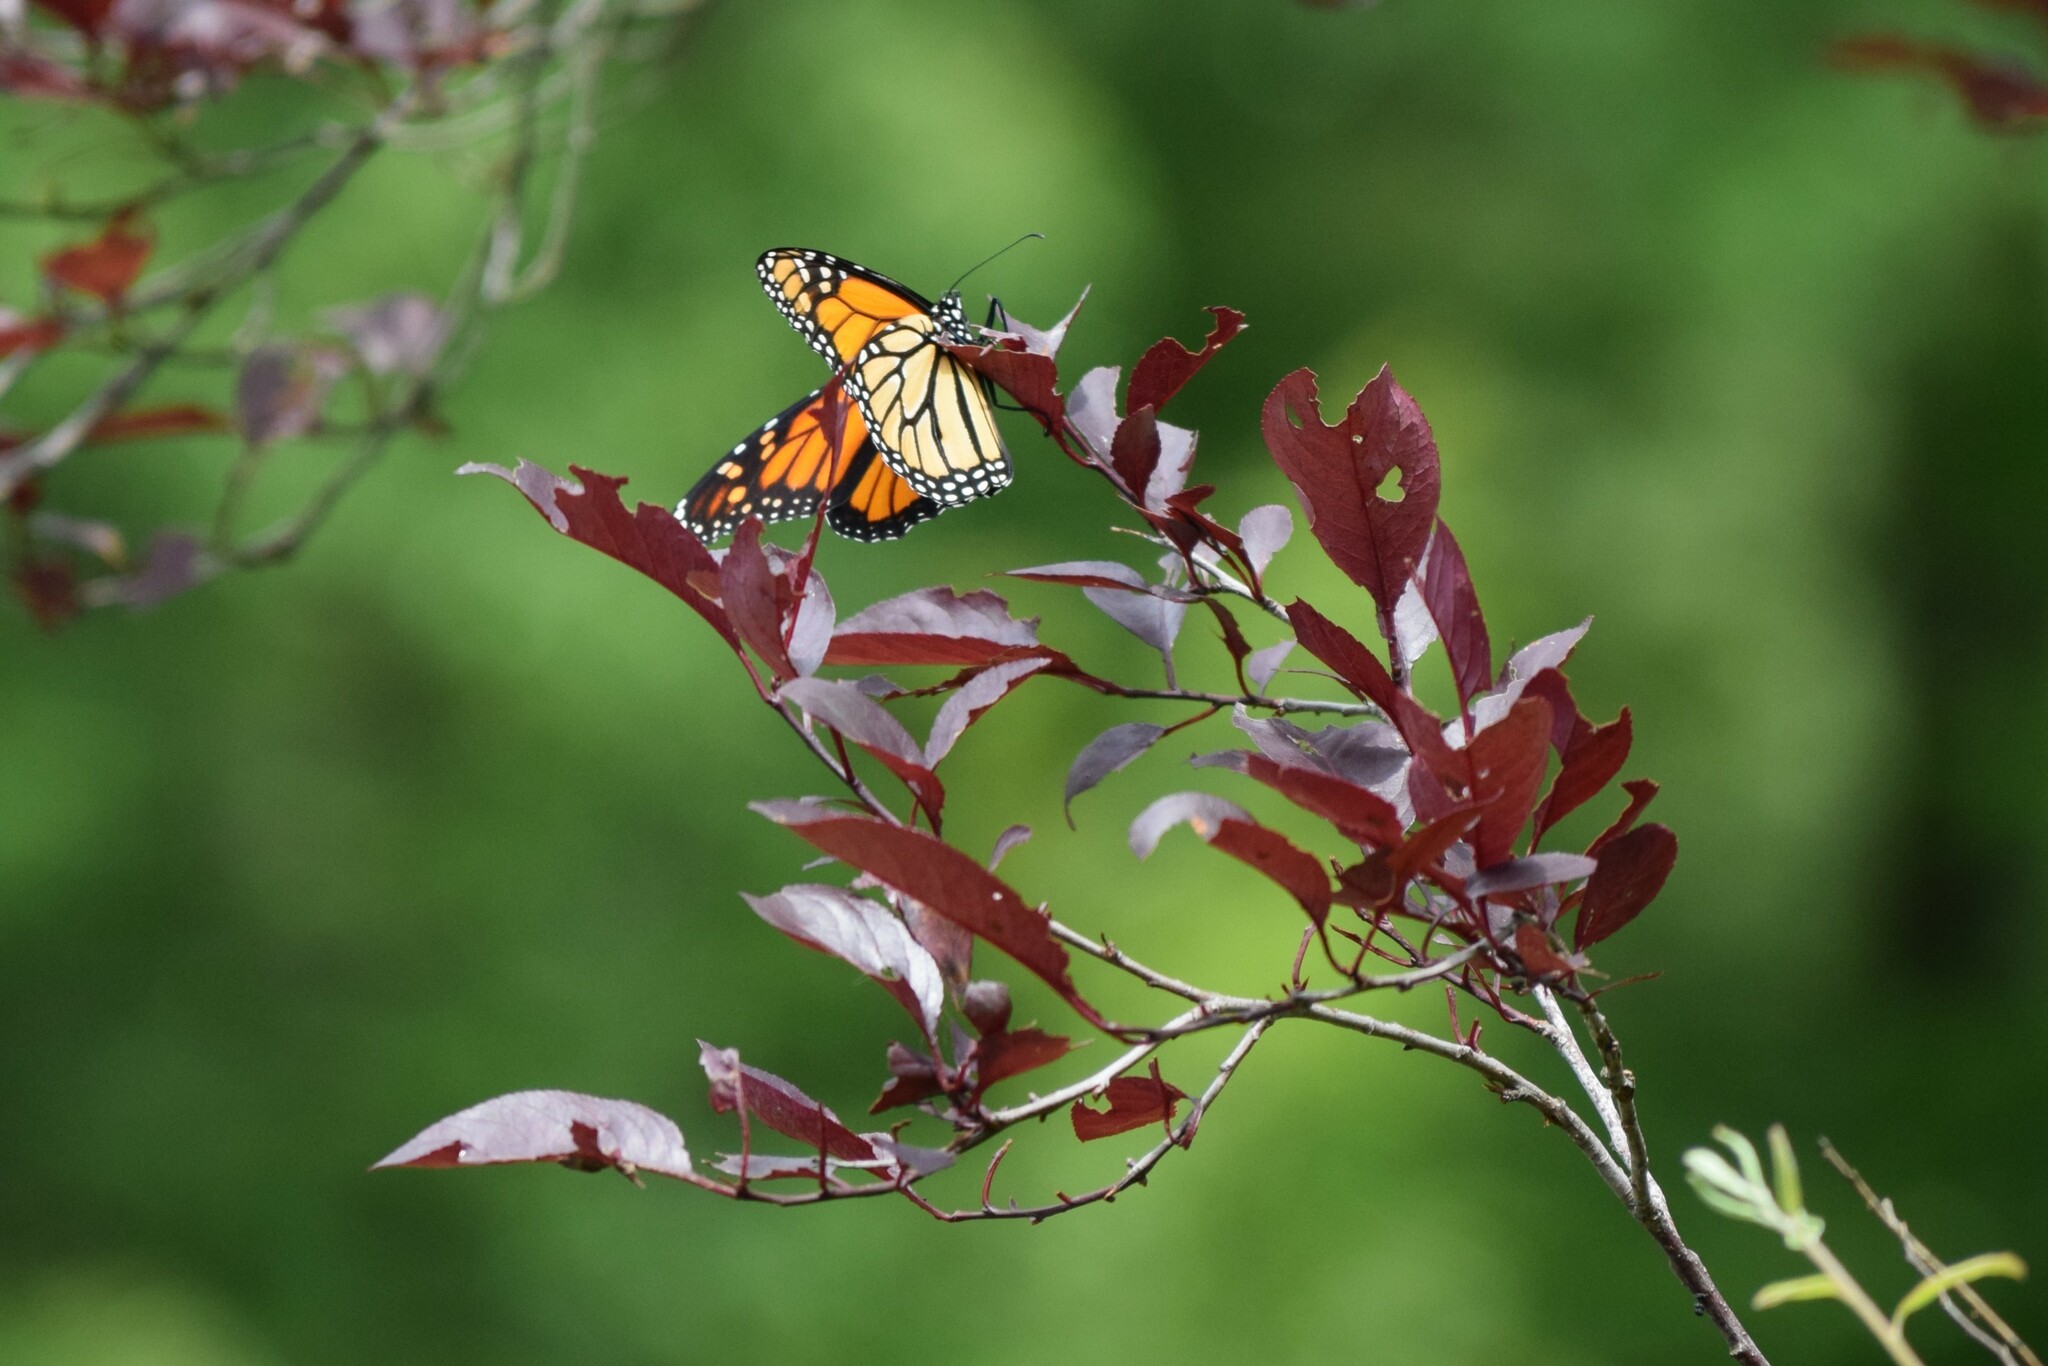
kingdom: Animalia
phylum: Arthropoda
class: Insecta
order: Lepidoptera
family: Nymphalidae
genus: Danaus
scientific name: Danaus plexippus
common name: Monarch
